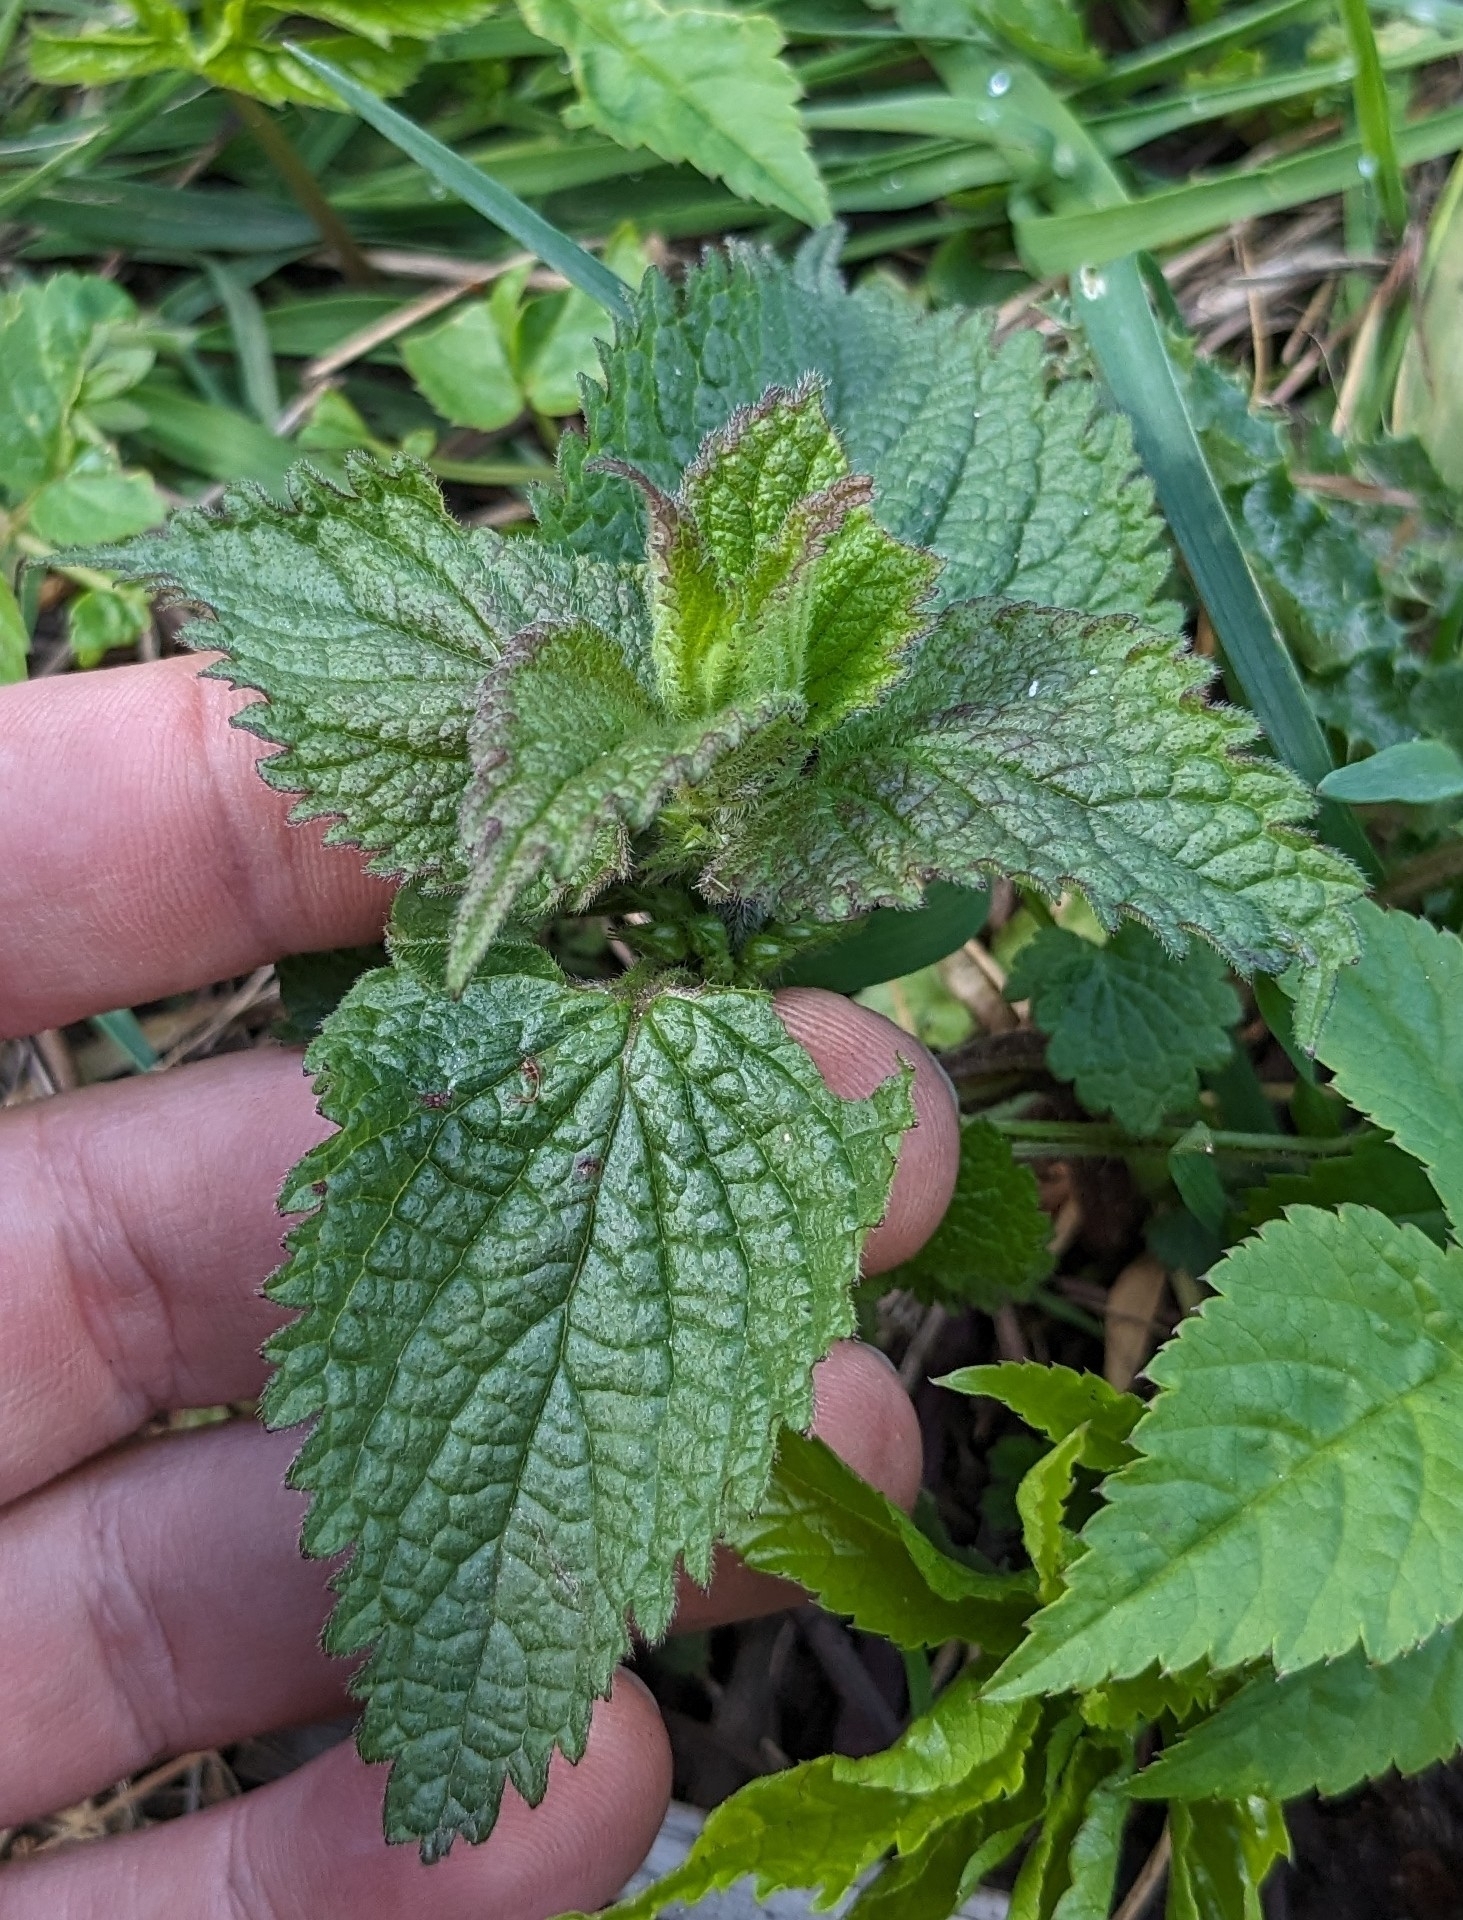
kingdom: Plantae
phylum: Tracheophyta
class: Magnoliopsida
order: Lamiales
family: Lamiaceae
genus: Lamium
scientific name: Lamium album
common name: White dead-nettle
